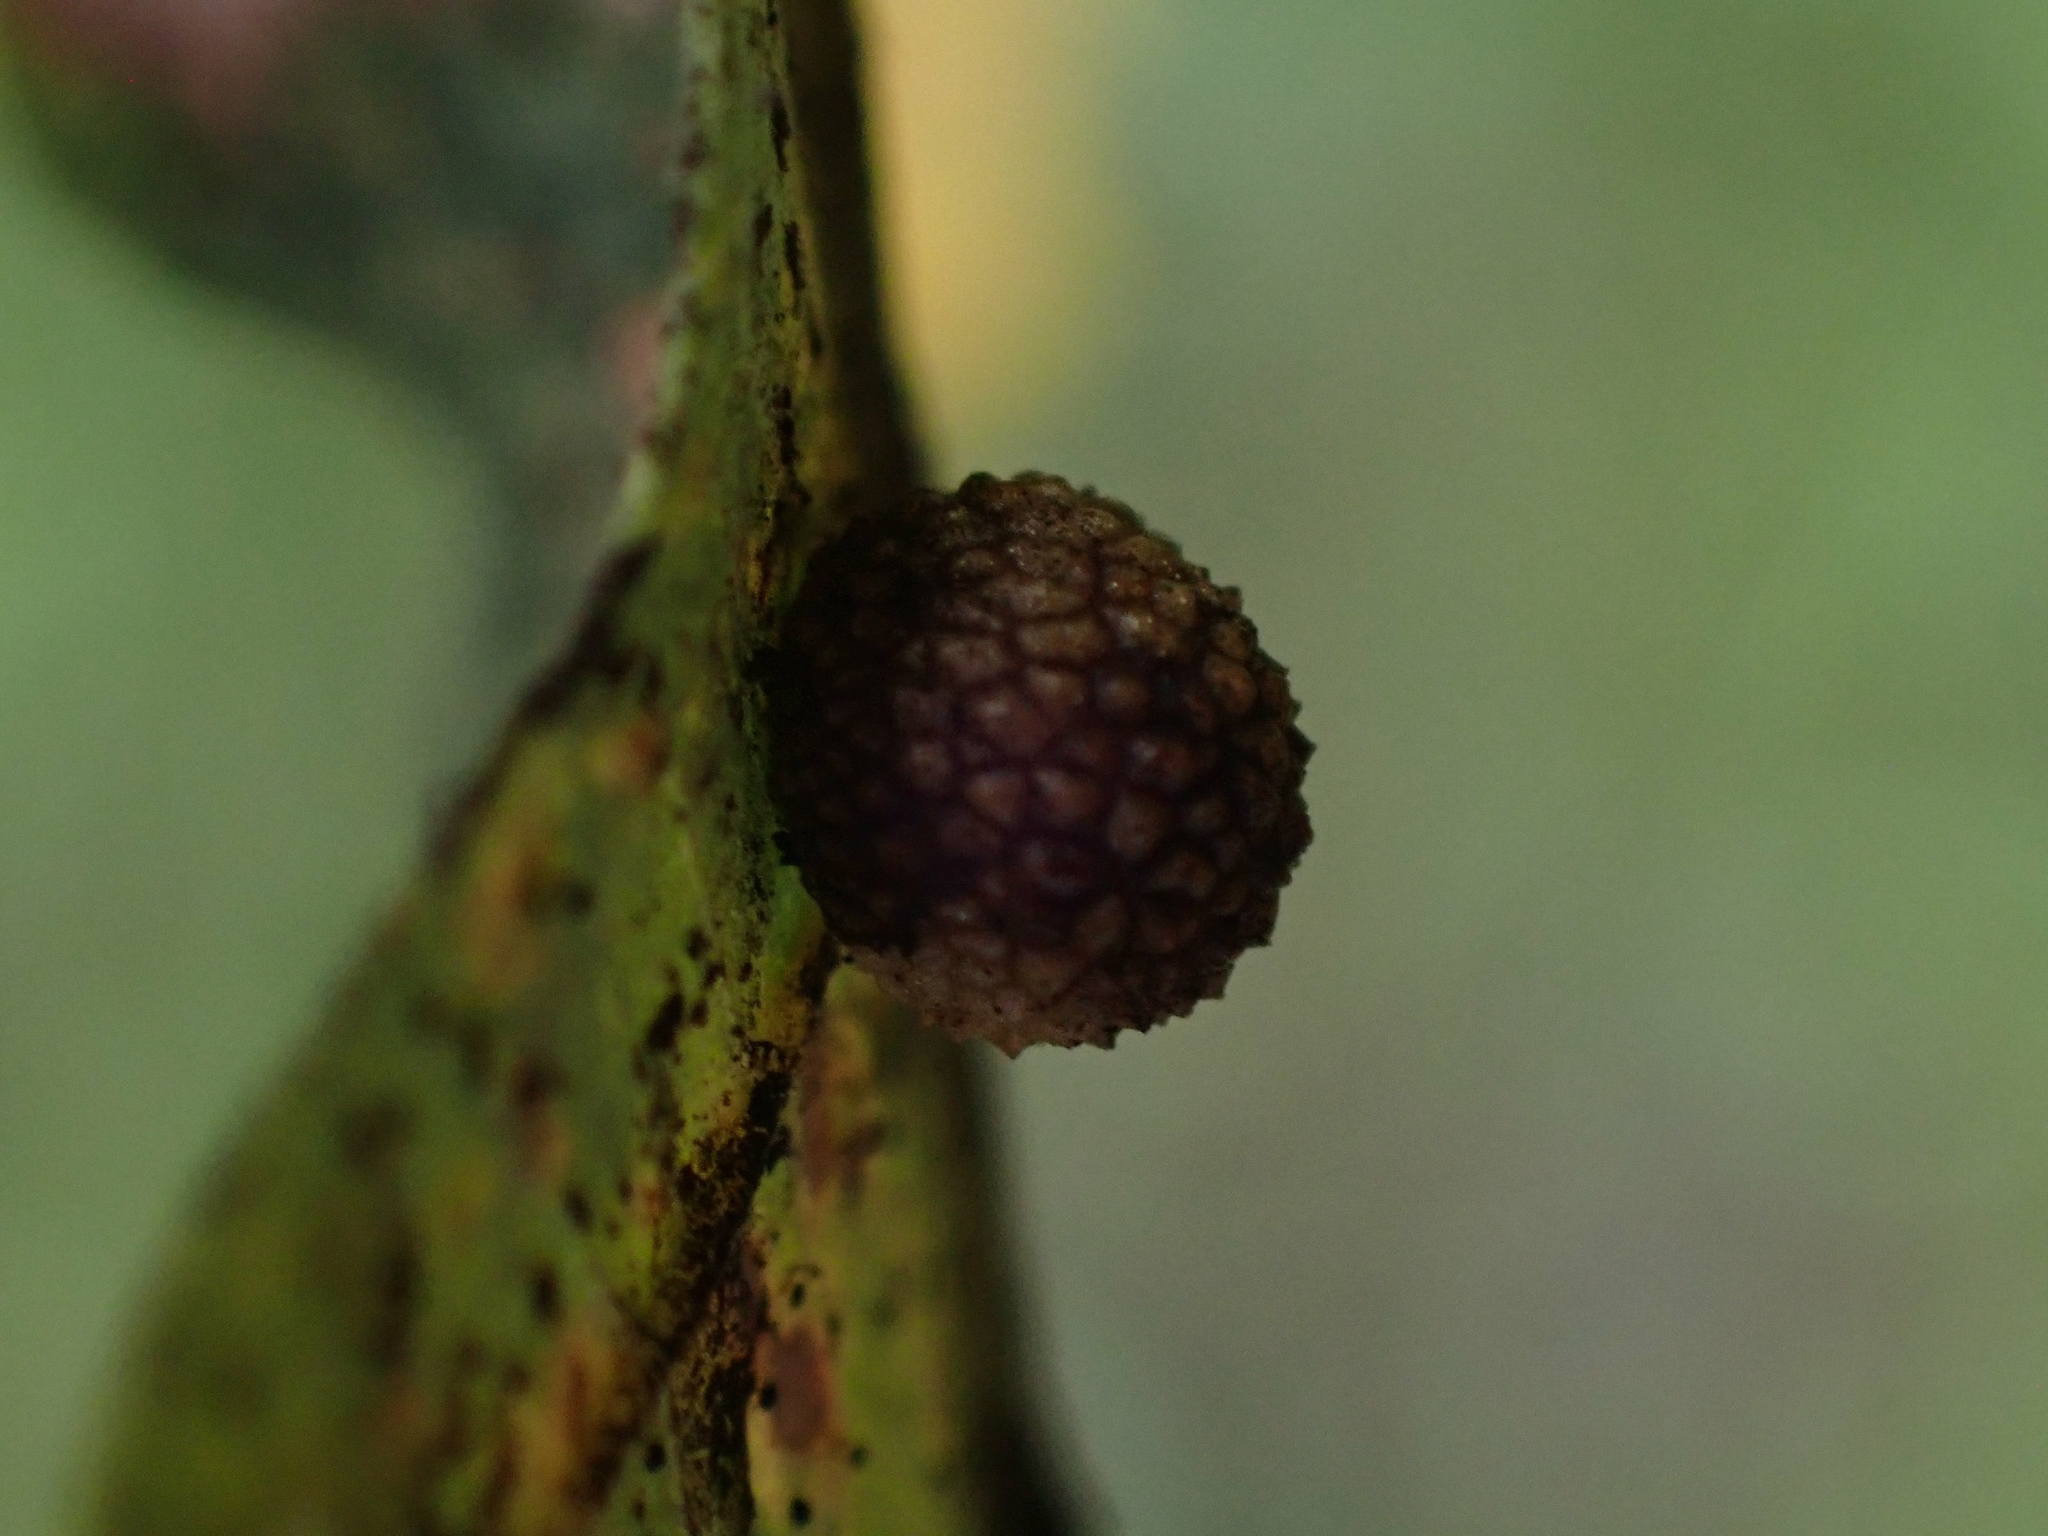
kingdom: Animalia
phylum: Arthropoda
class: Insecta
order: Hymenoptera
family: Cynipidae
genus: Acraspis
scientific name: Acraspis quercushirta
